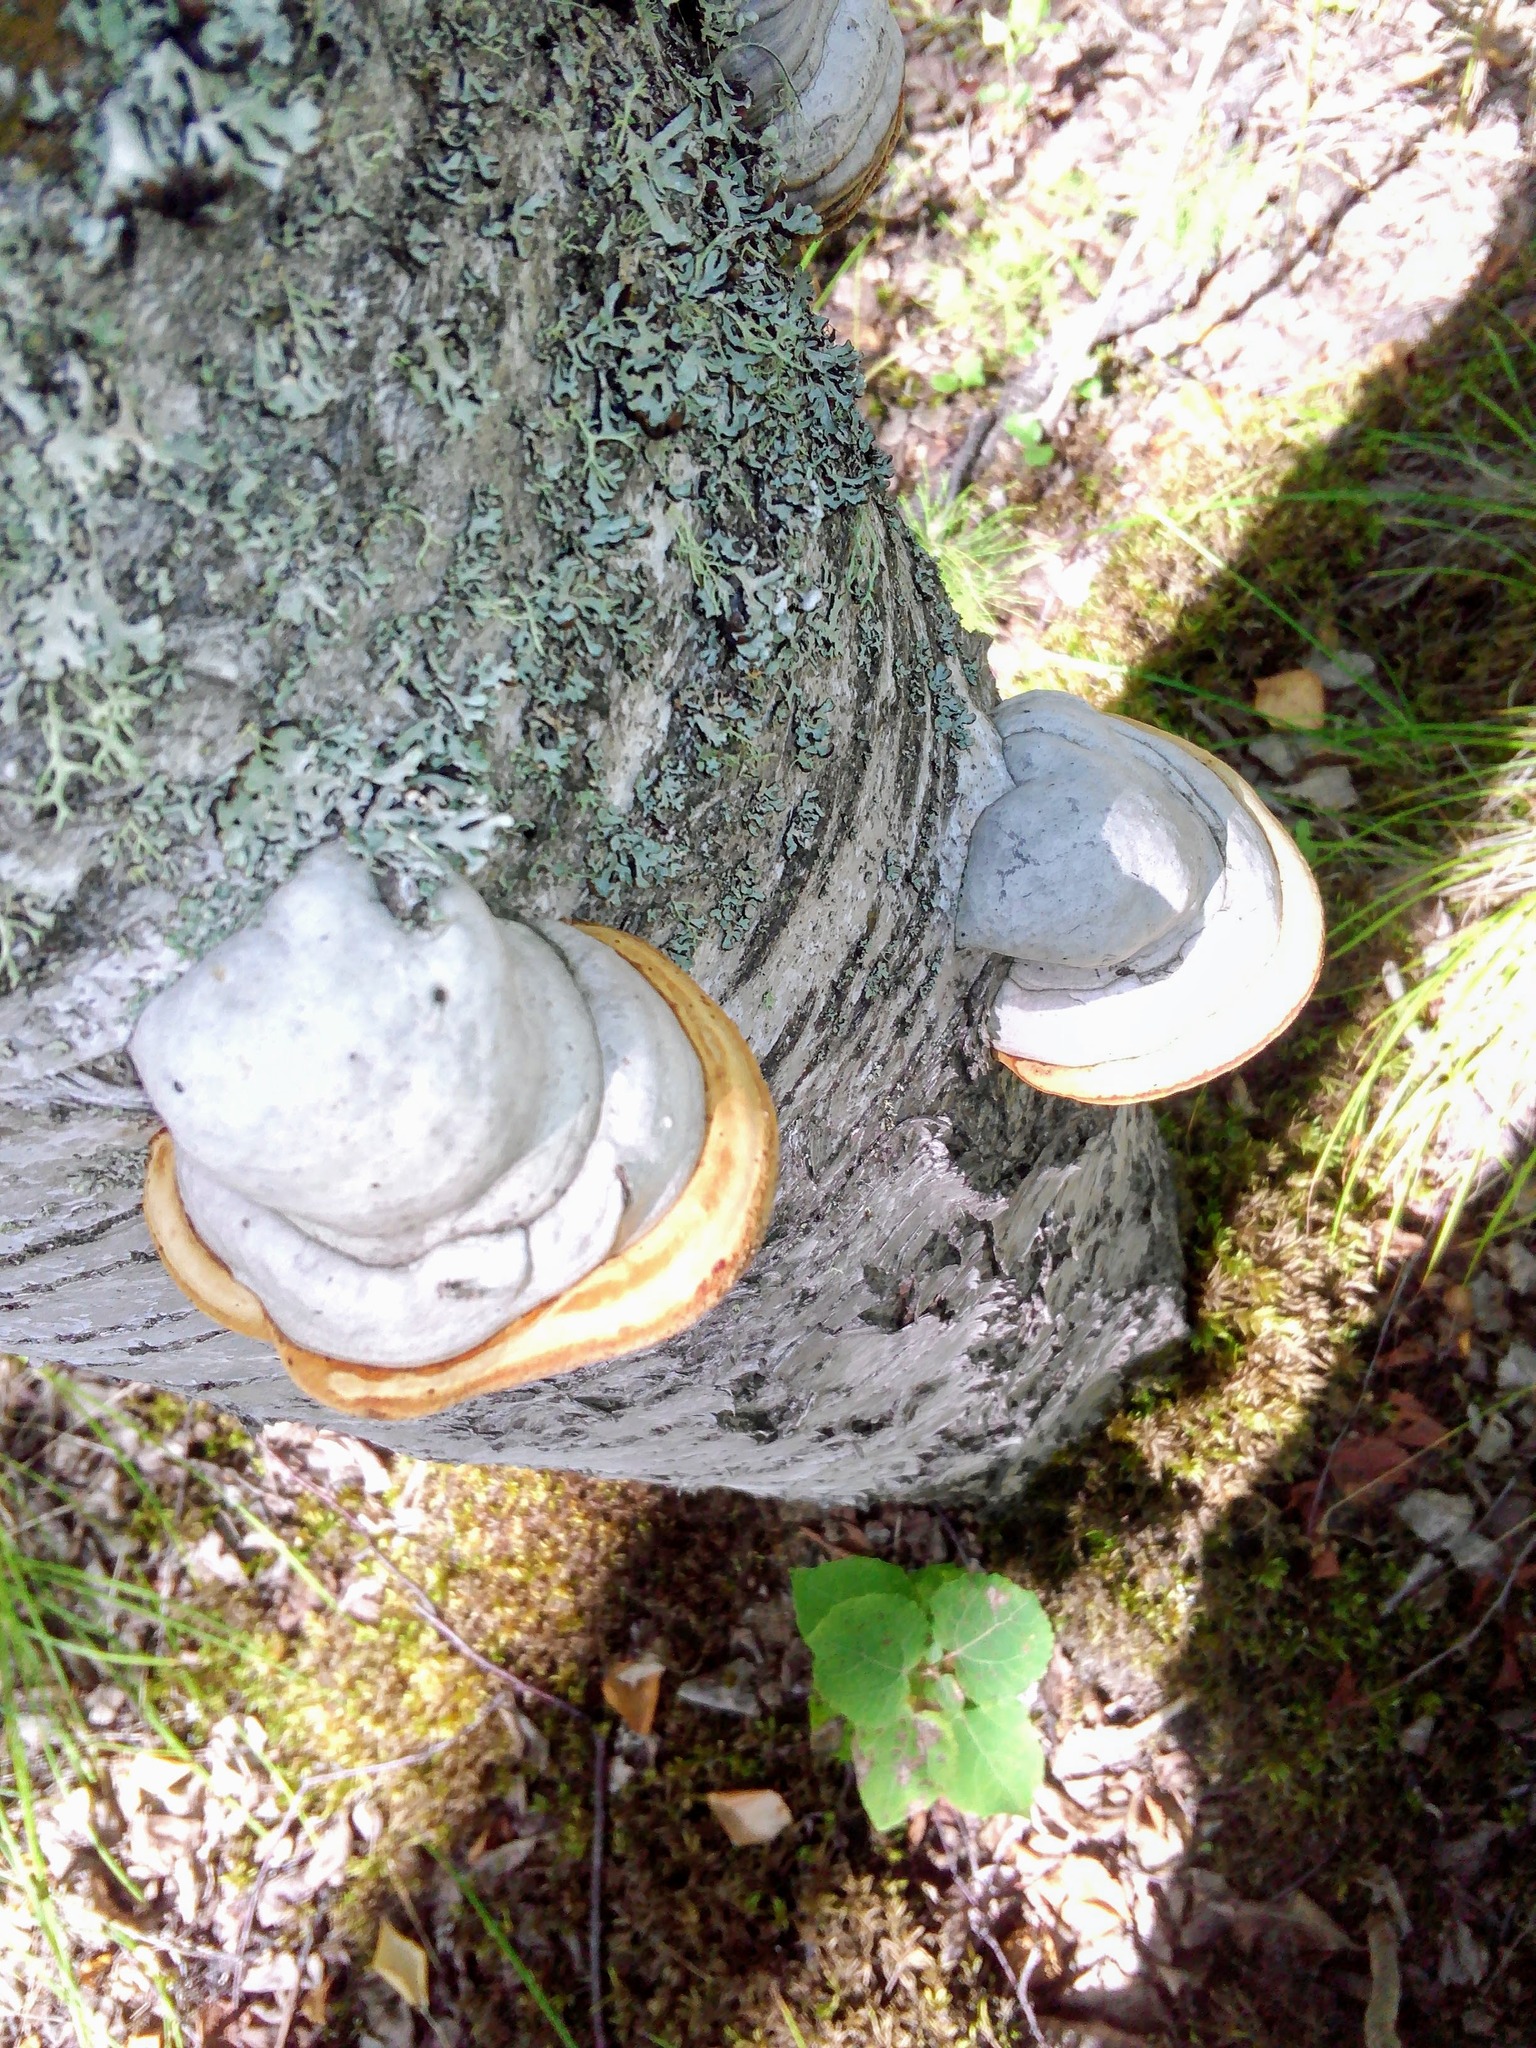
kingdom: Fungi
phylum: Basidiomycota
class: Agaricomycetes
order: Polyporales
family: Polyporaceae
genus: Fomes
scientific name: Fomes fomentarius
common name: Hoof fungus
